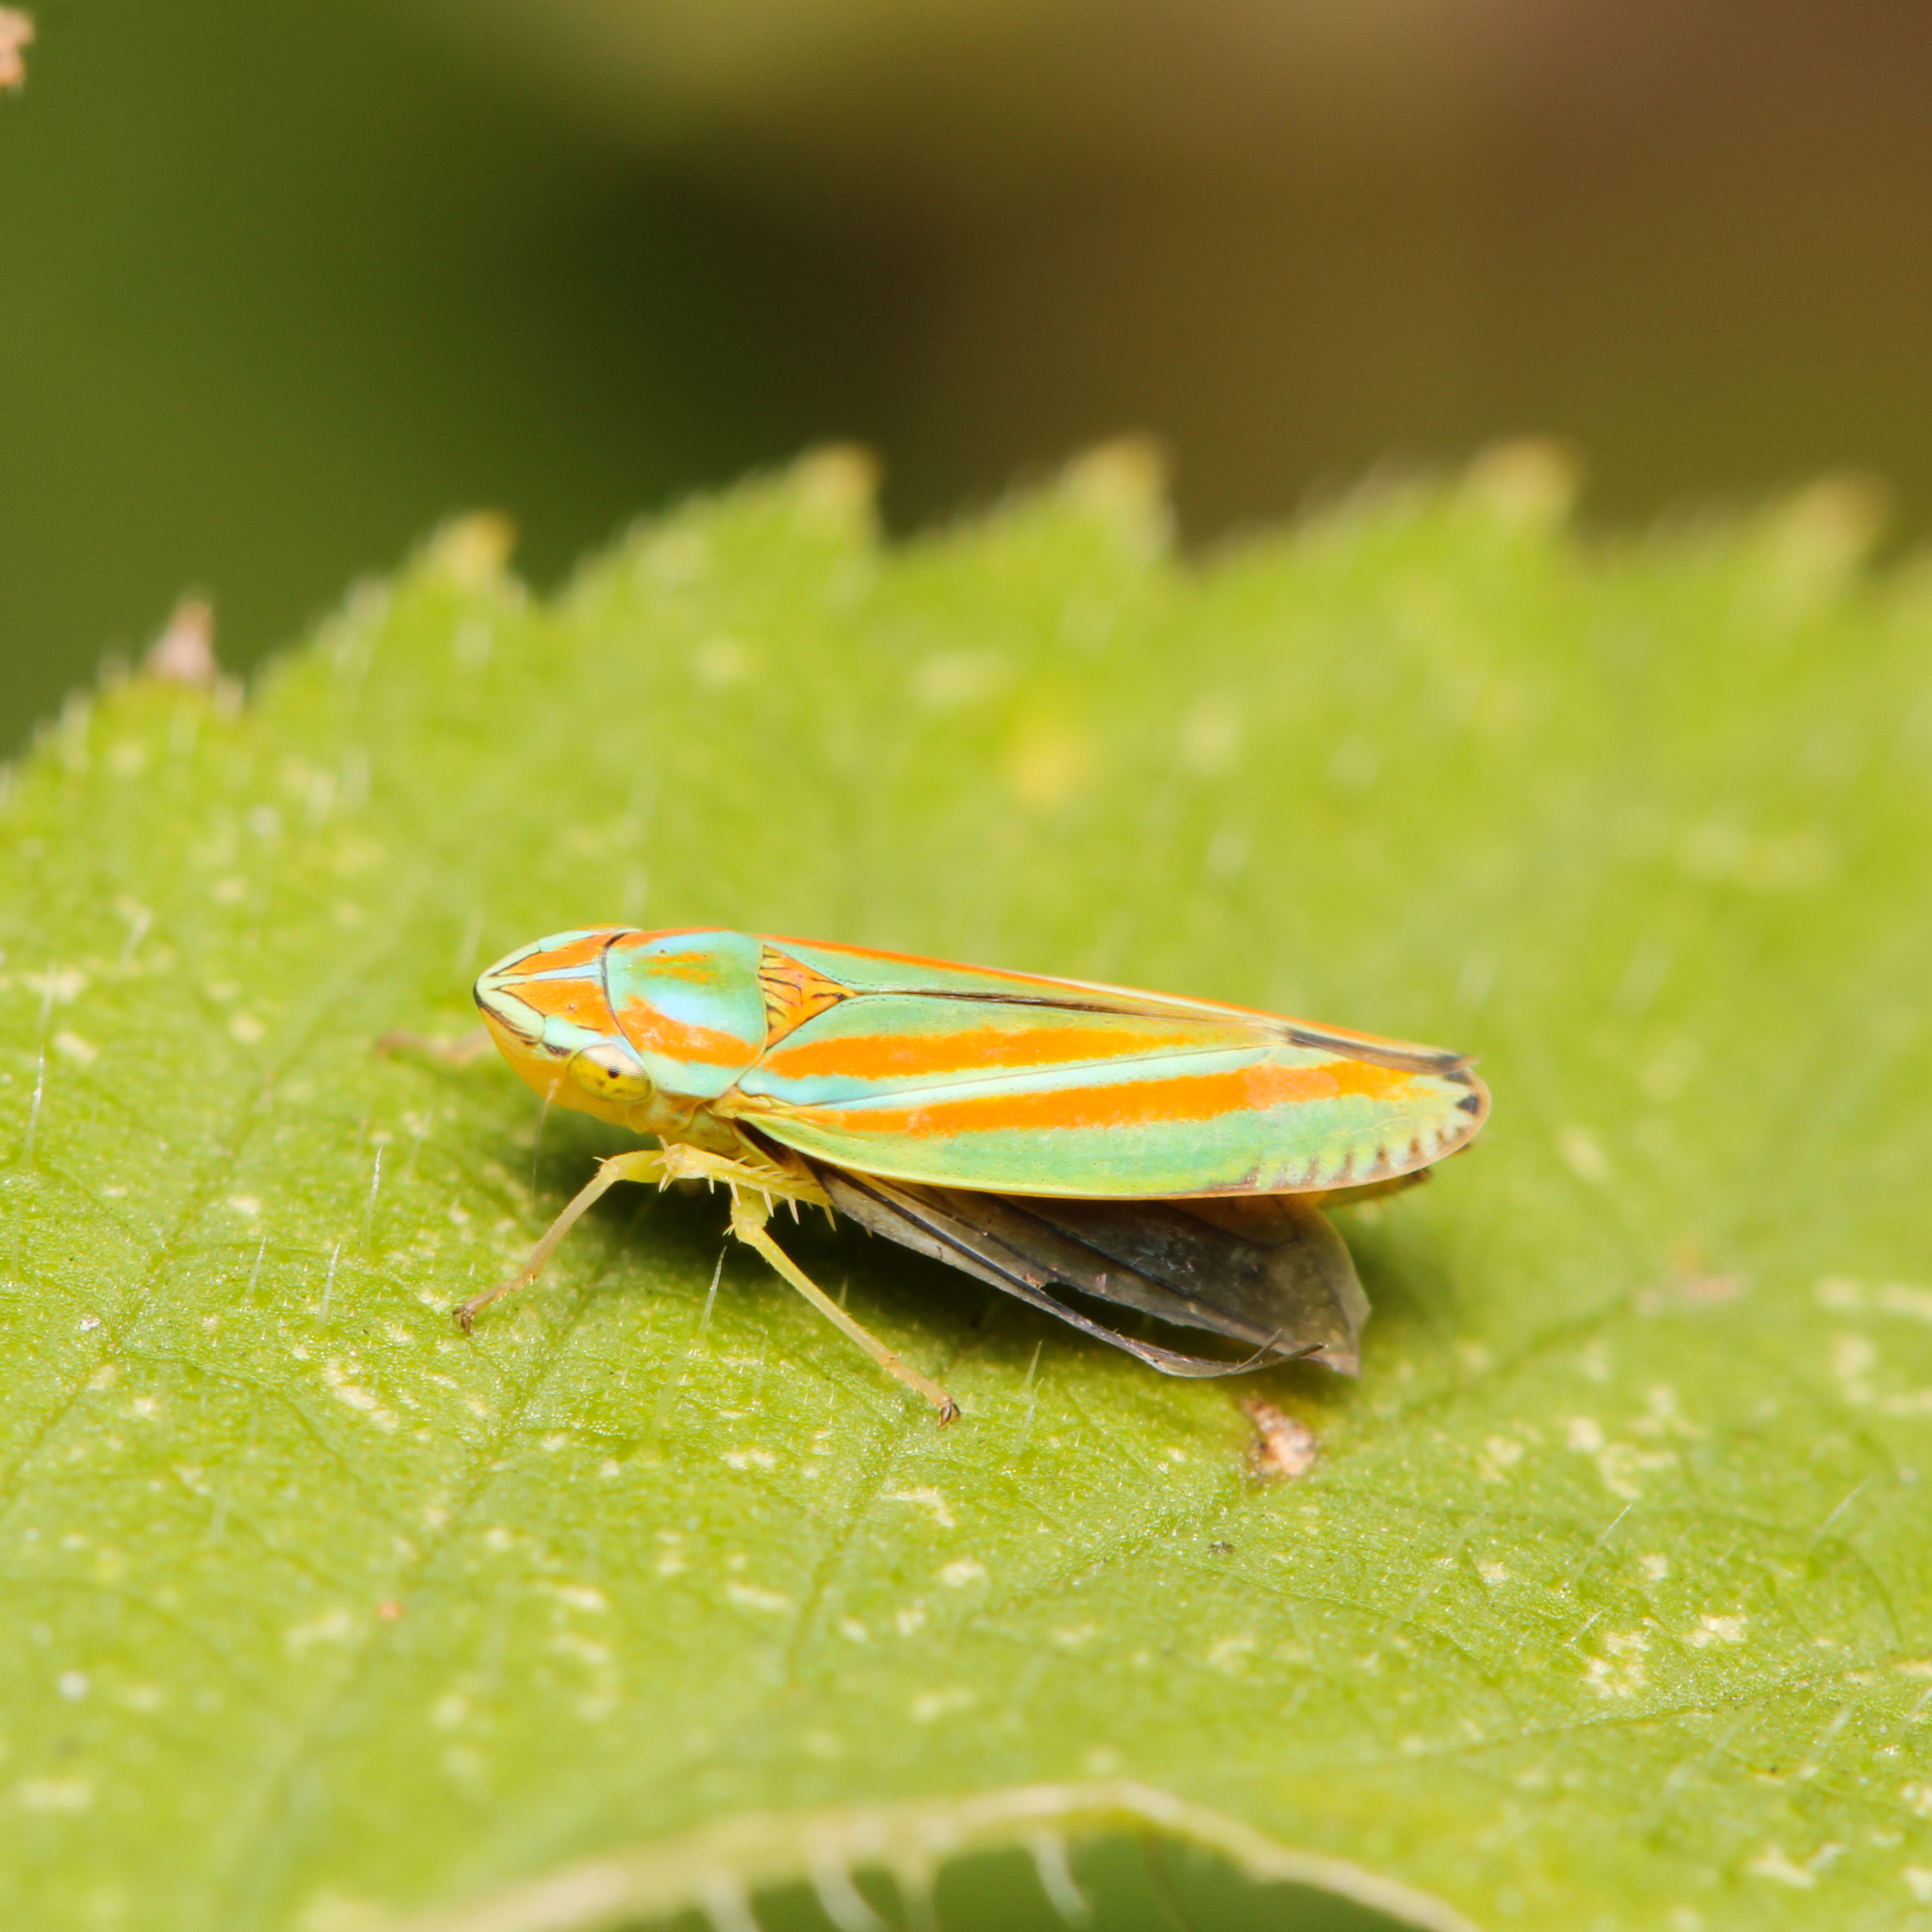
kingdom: Animalia
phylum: Arthropoda
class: Insecta
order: Hemiptera
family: Cicadellidae
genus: Graphocephala
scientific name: Graphocephala versuta
